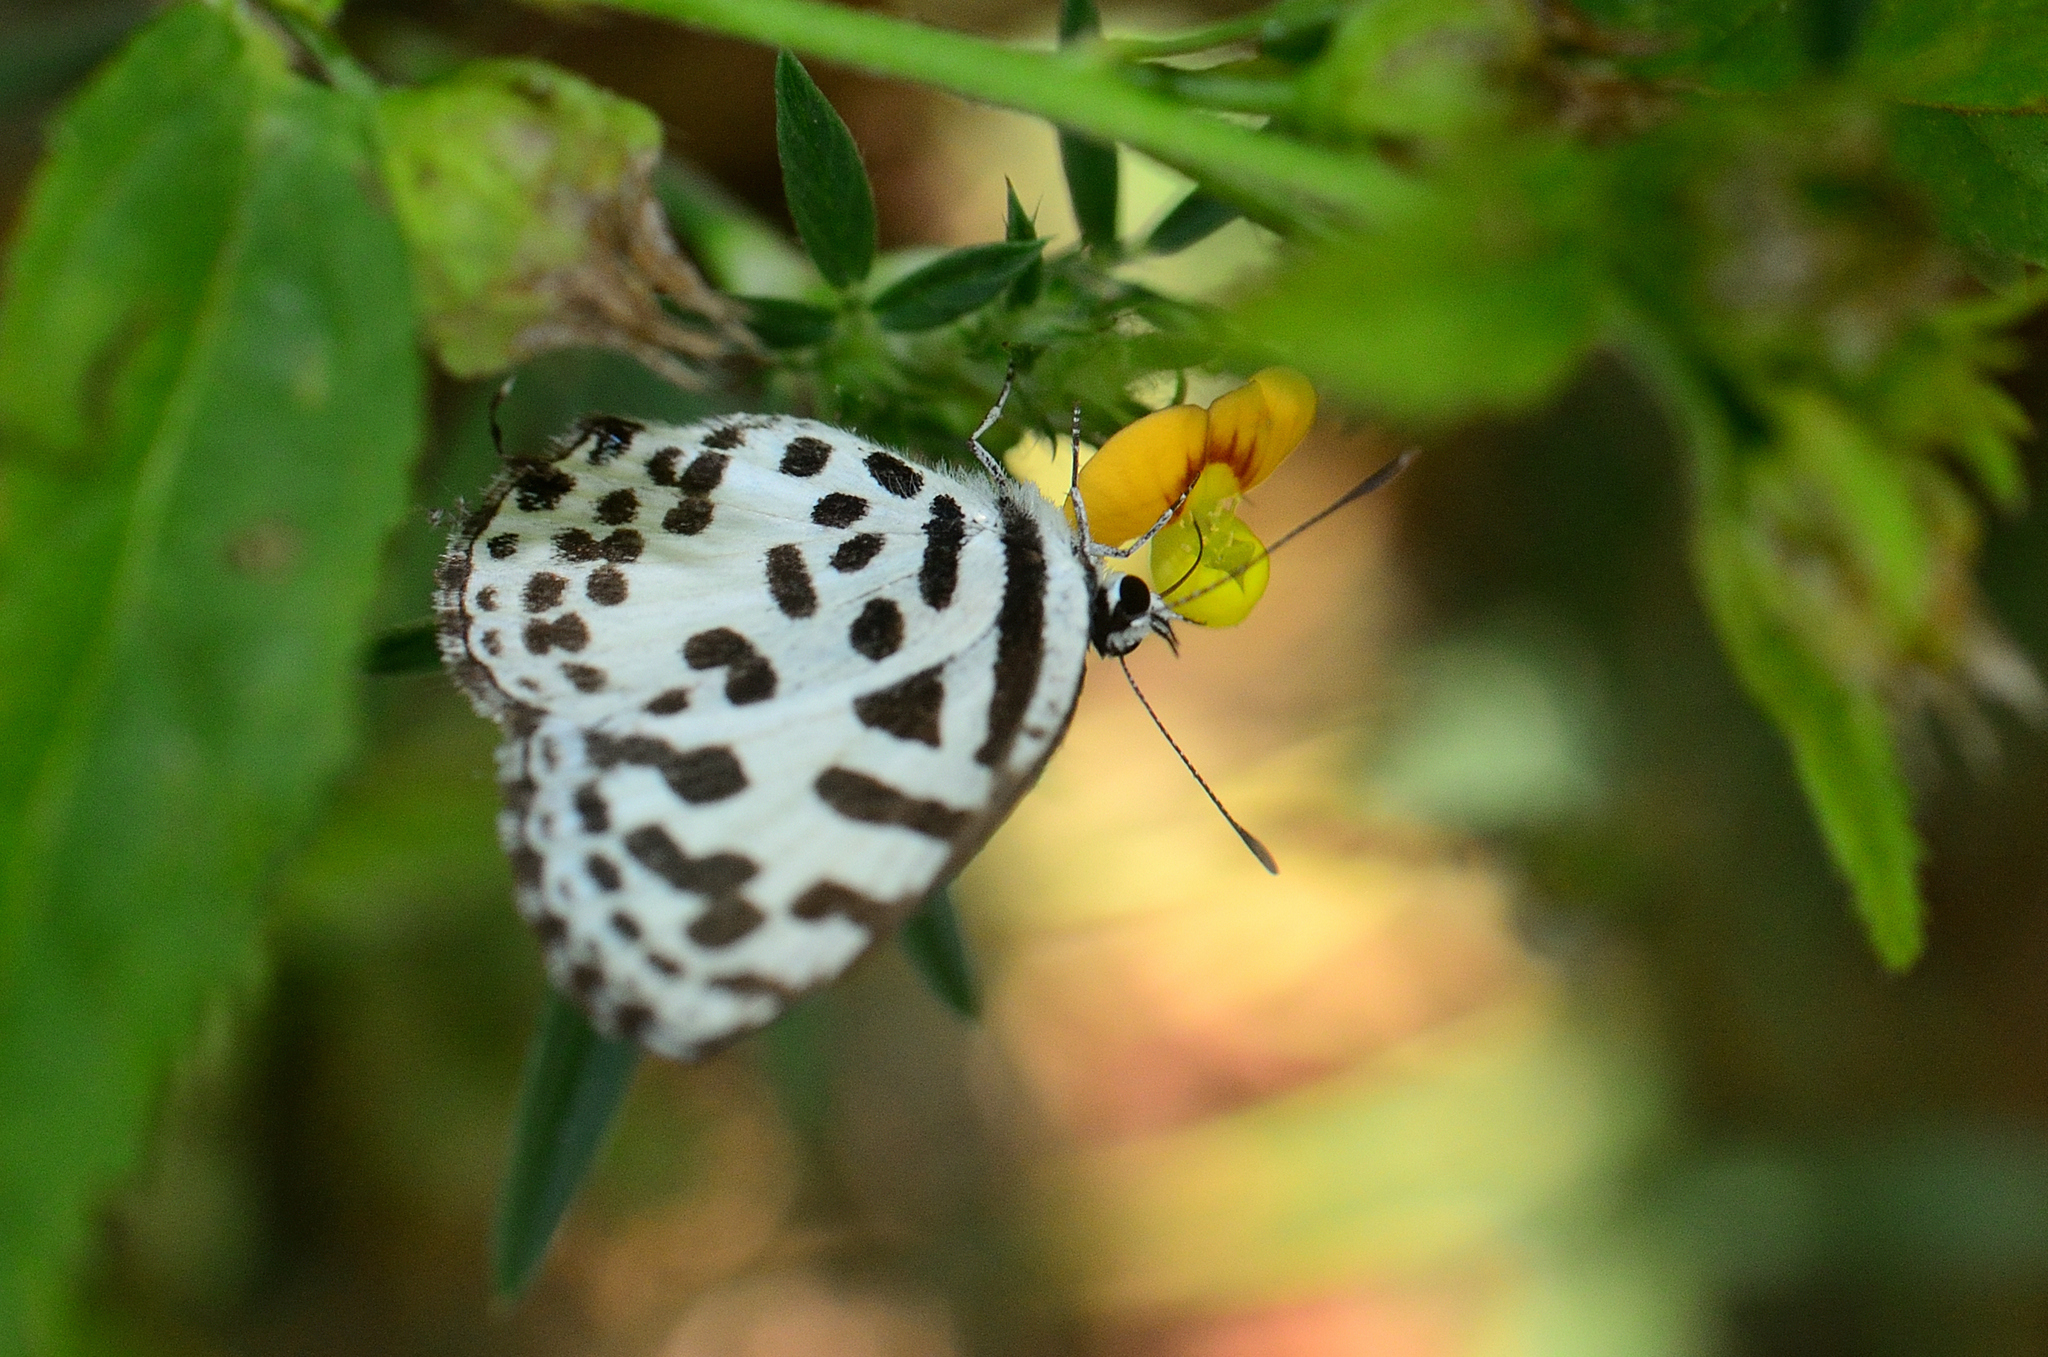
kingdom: Animalia
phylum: Arthropoda
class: Insecta
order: Lepidoptera
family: Lycaenidae
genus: Castalius
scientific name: Castalius rosimon
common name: Common pierrot
